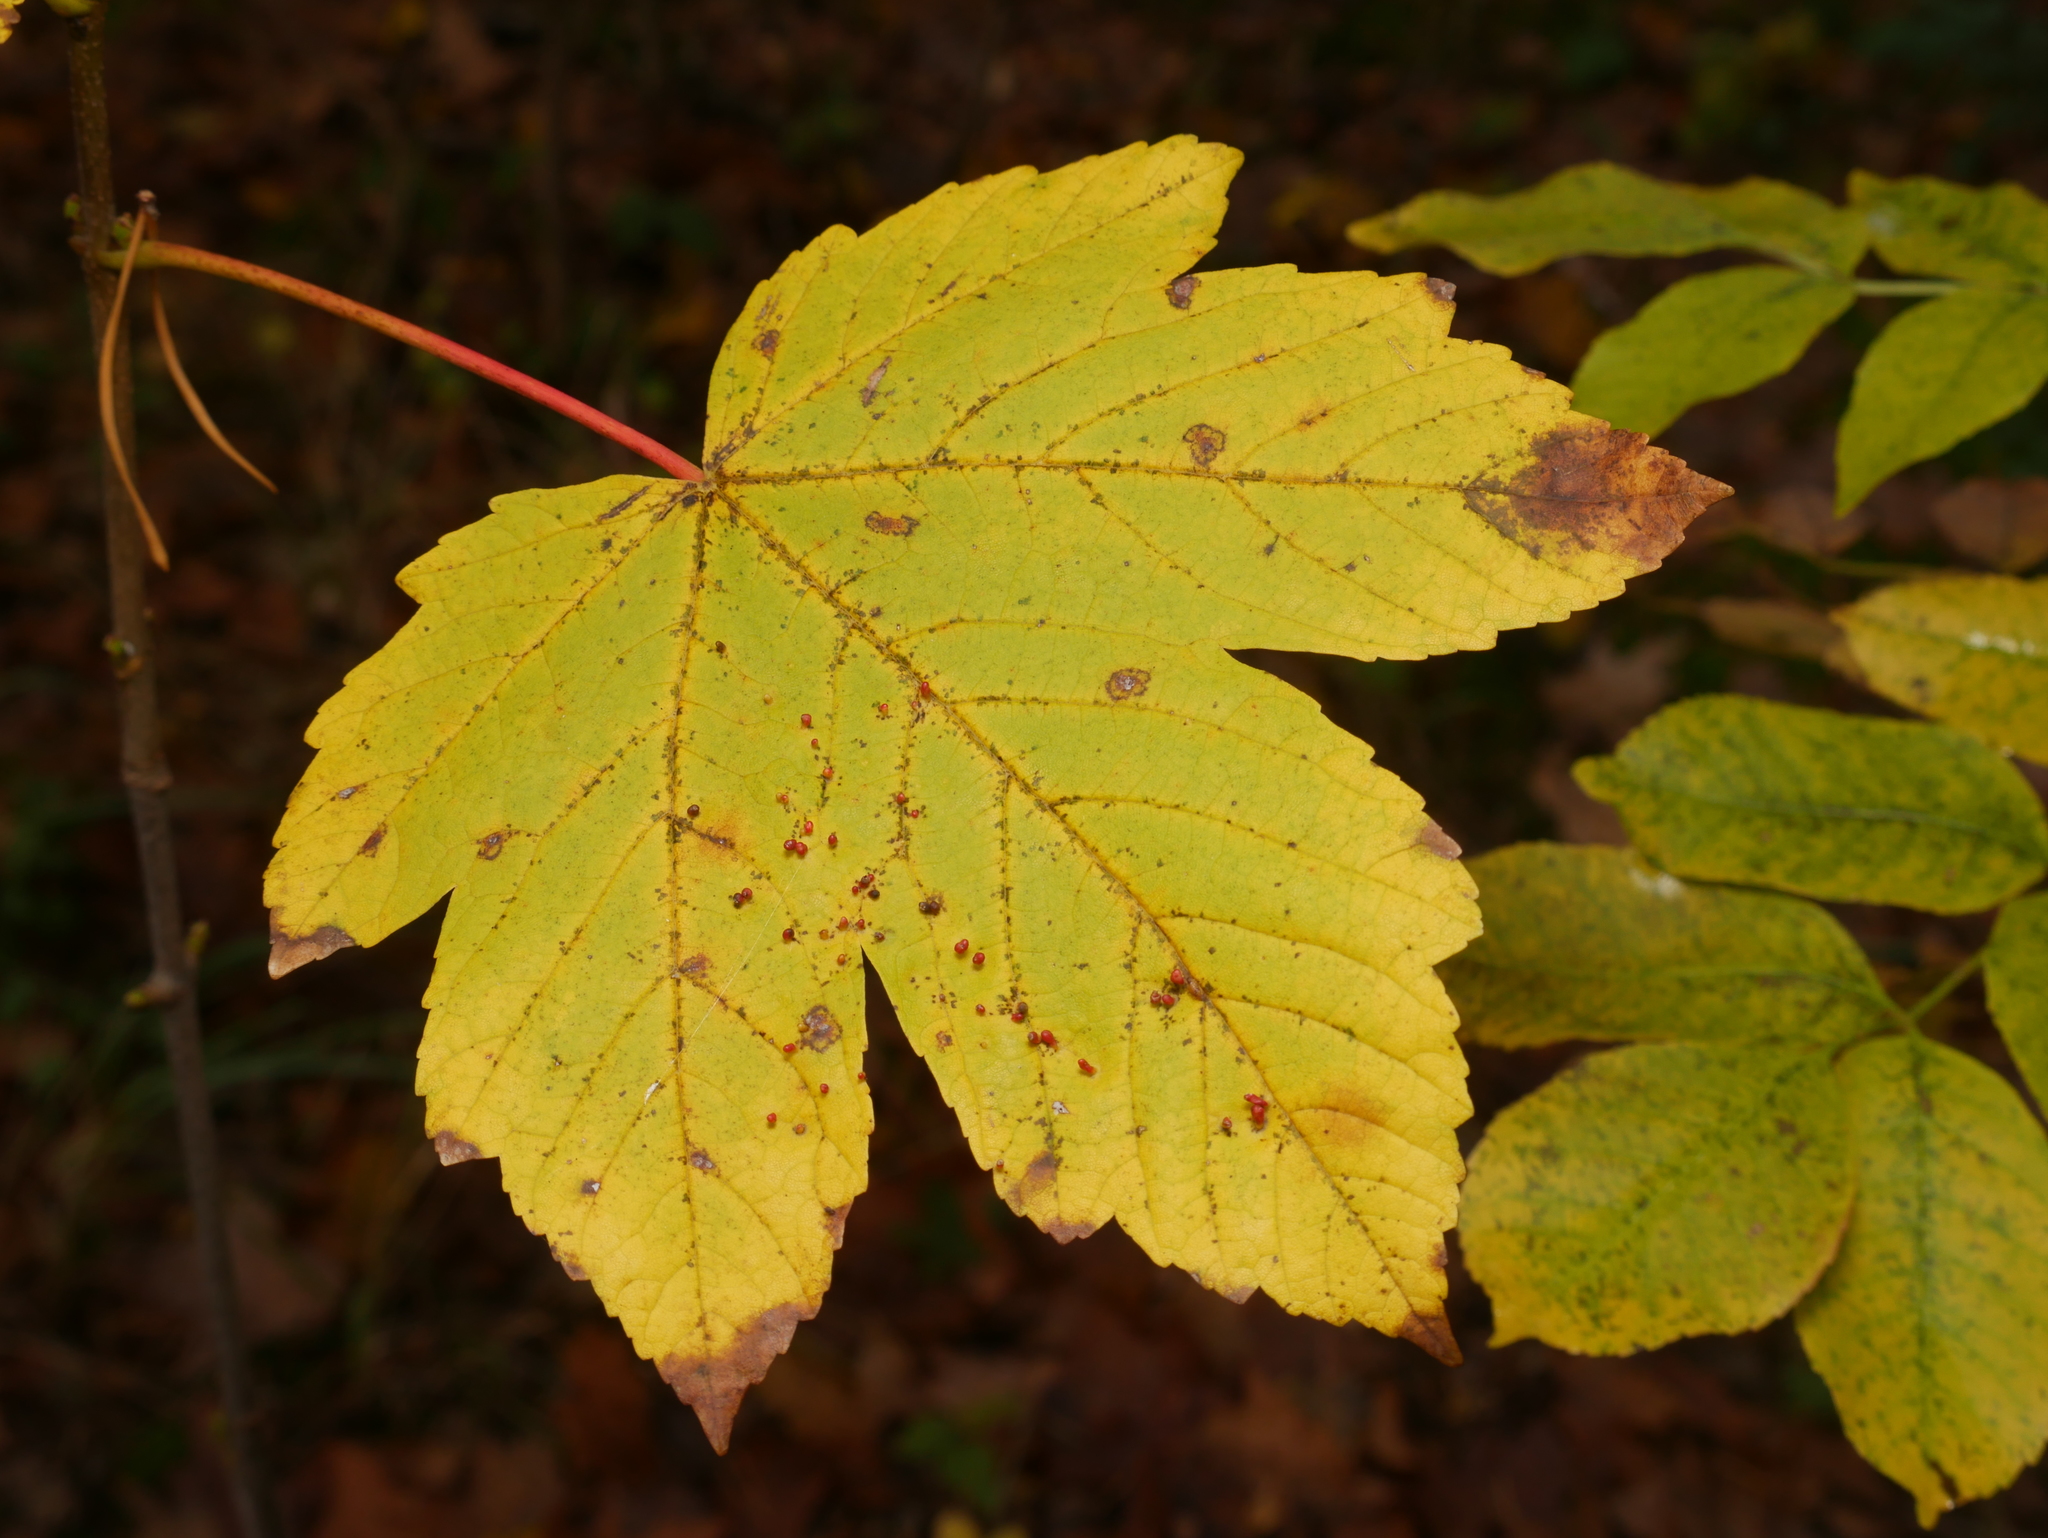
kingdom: Plantae
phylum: Tracheophyta
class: Magnoliopsida
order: Sapindales
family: Sapindaceae
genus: Acer
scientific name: Acer pseudoplatanus
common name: Sycamore
